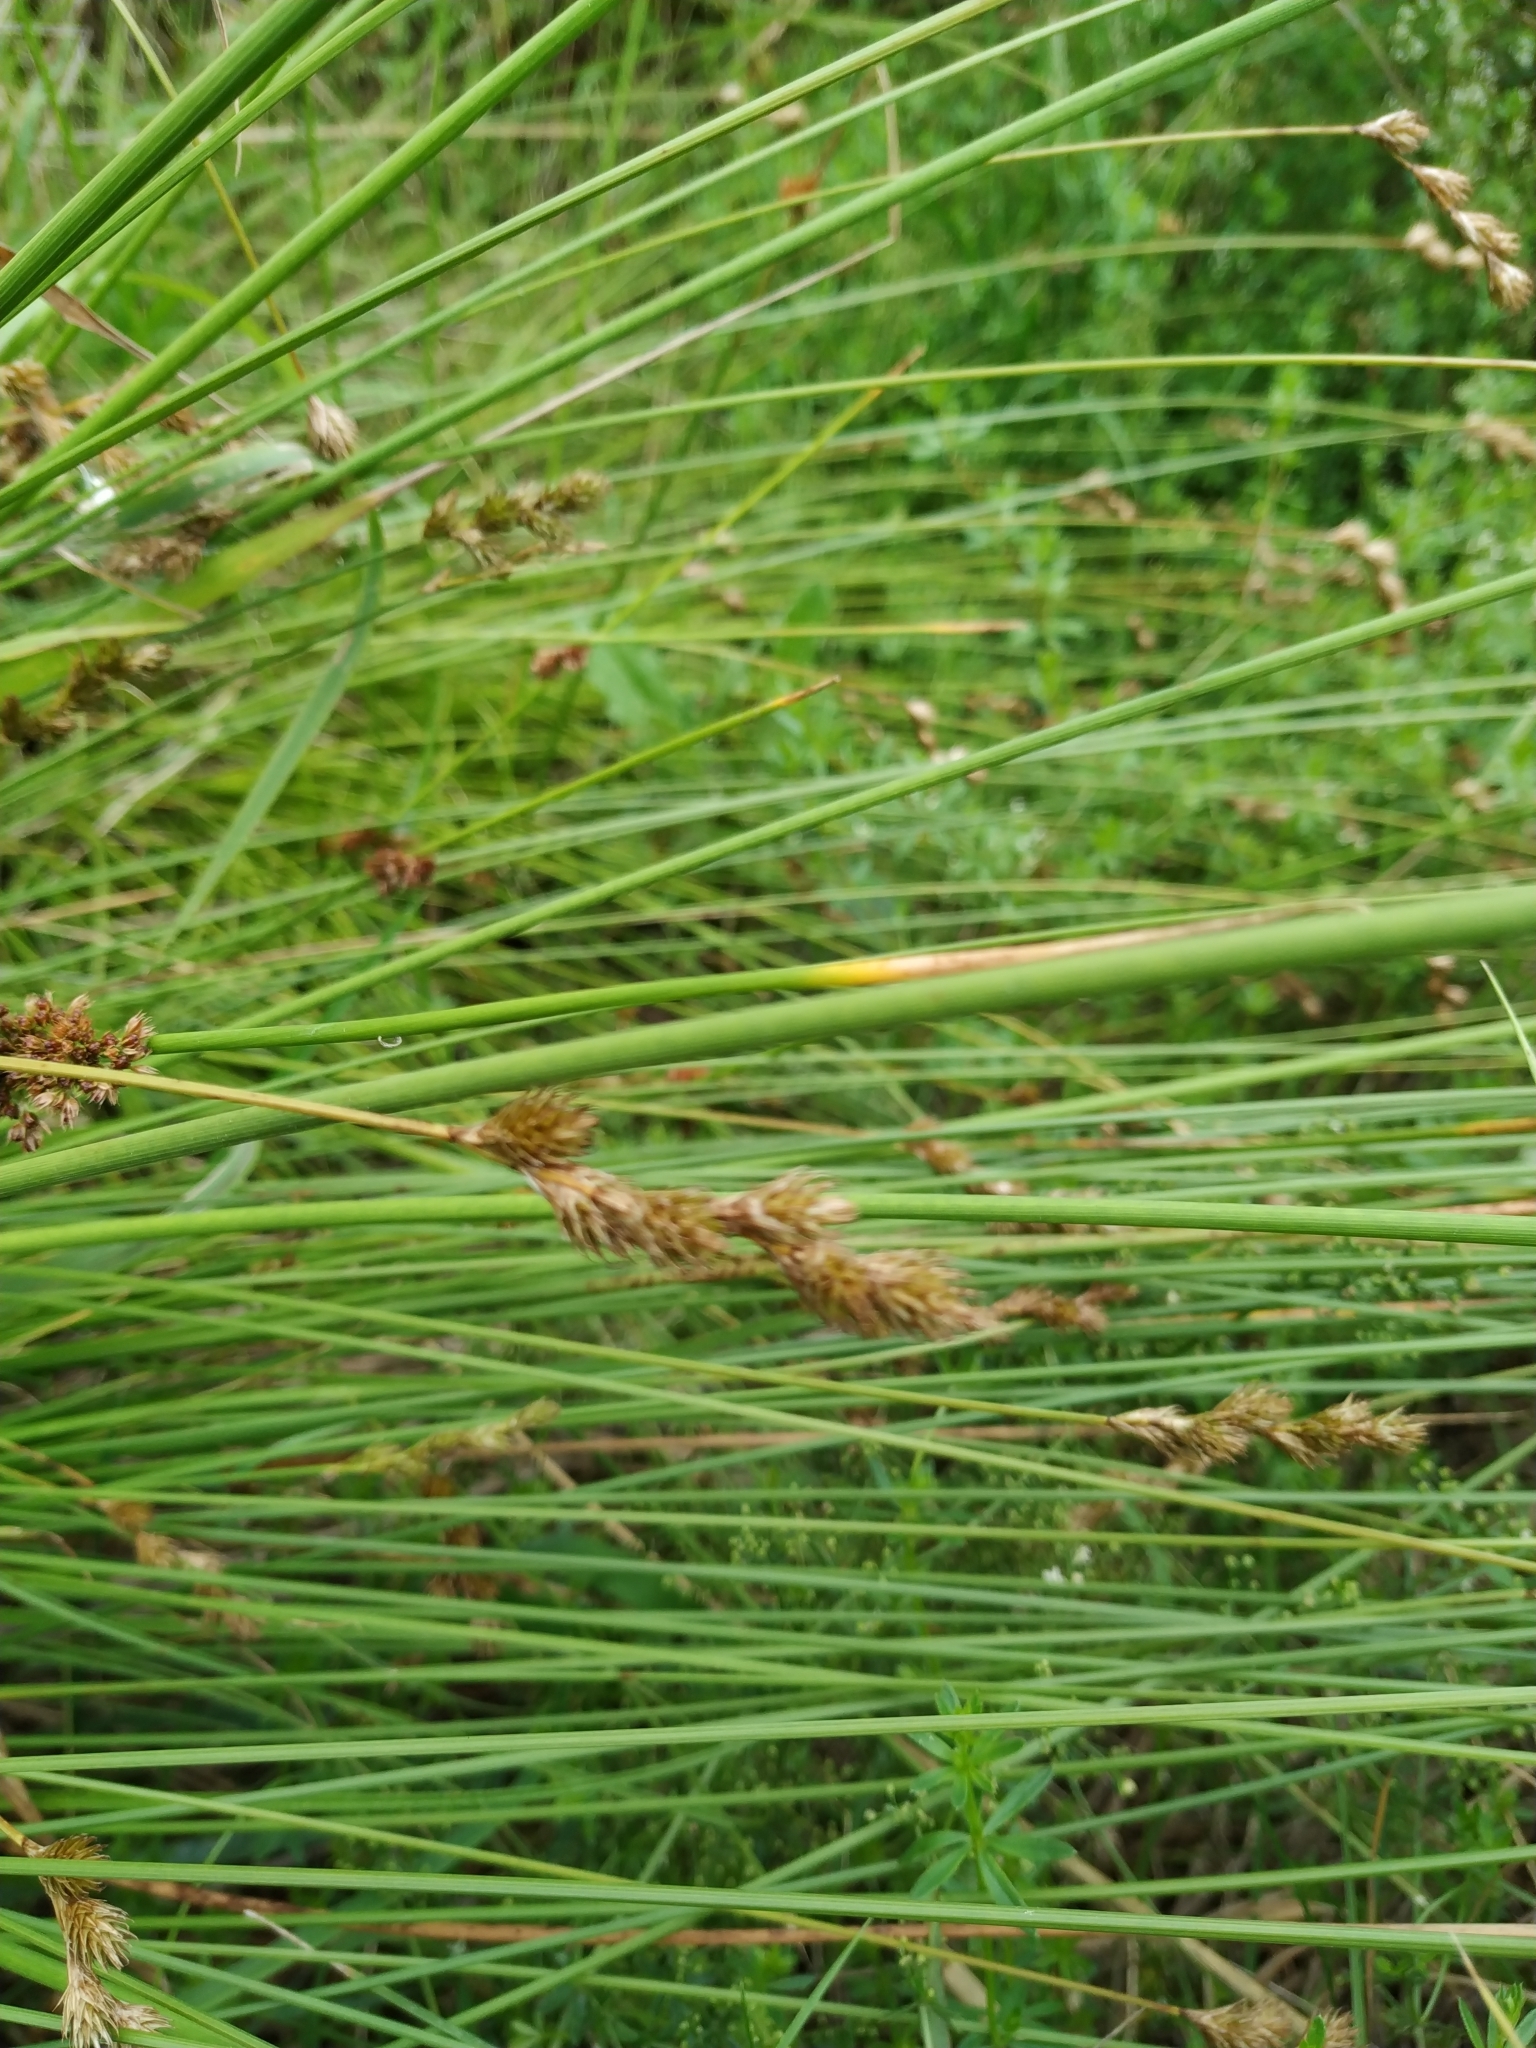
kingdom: Plantae
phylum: Tracheophyta
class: Liliopsida
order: Poales
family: Cyperaceae
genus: Carex
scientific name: Carex leporina
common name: Oval sedge
